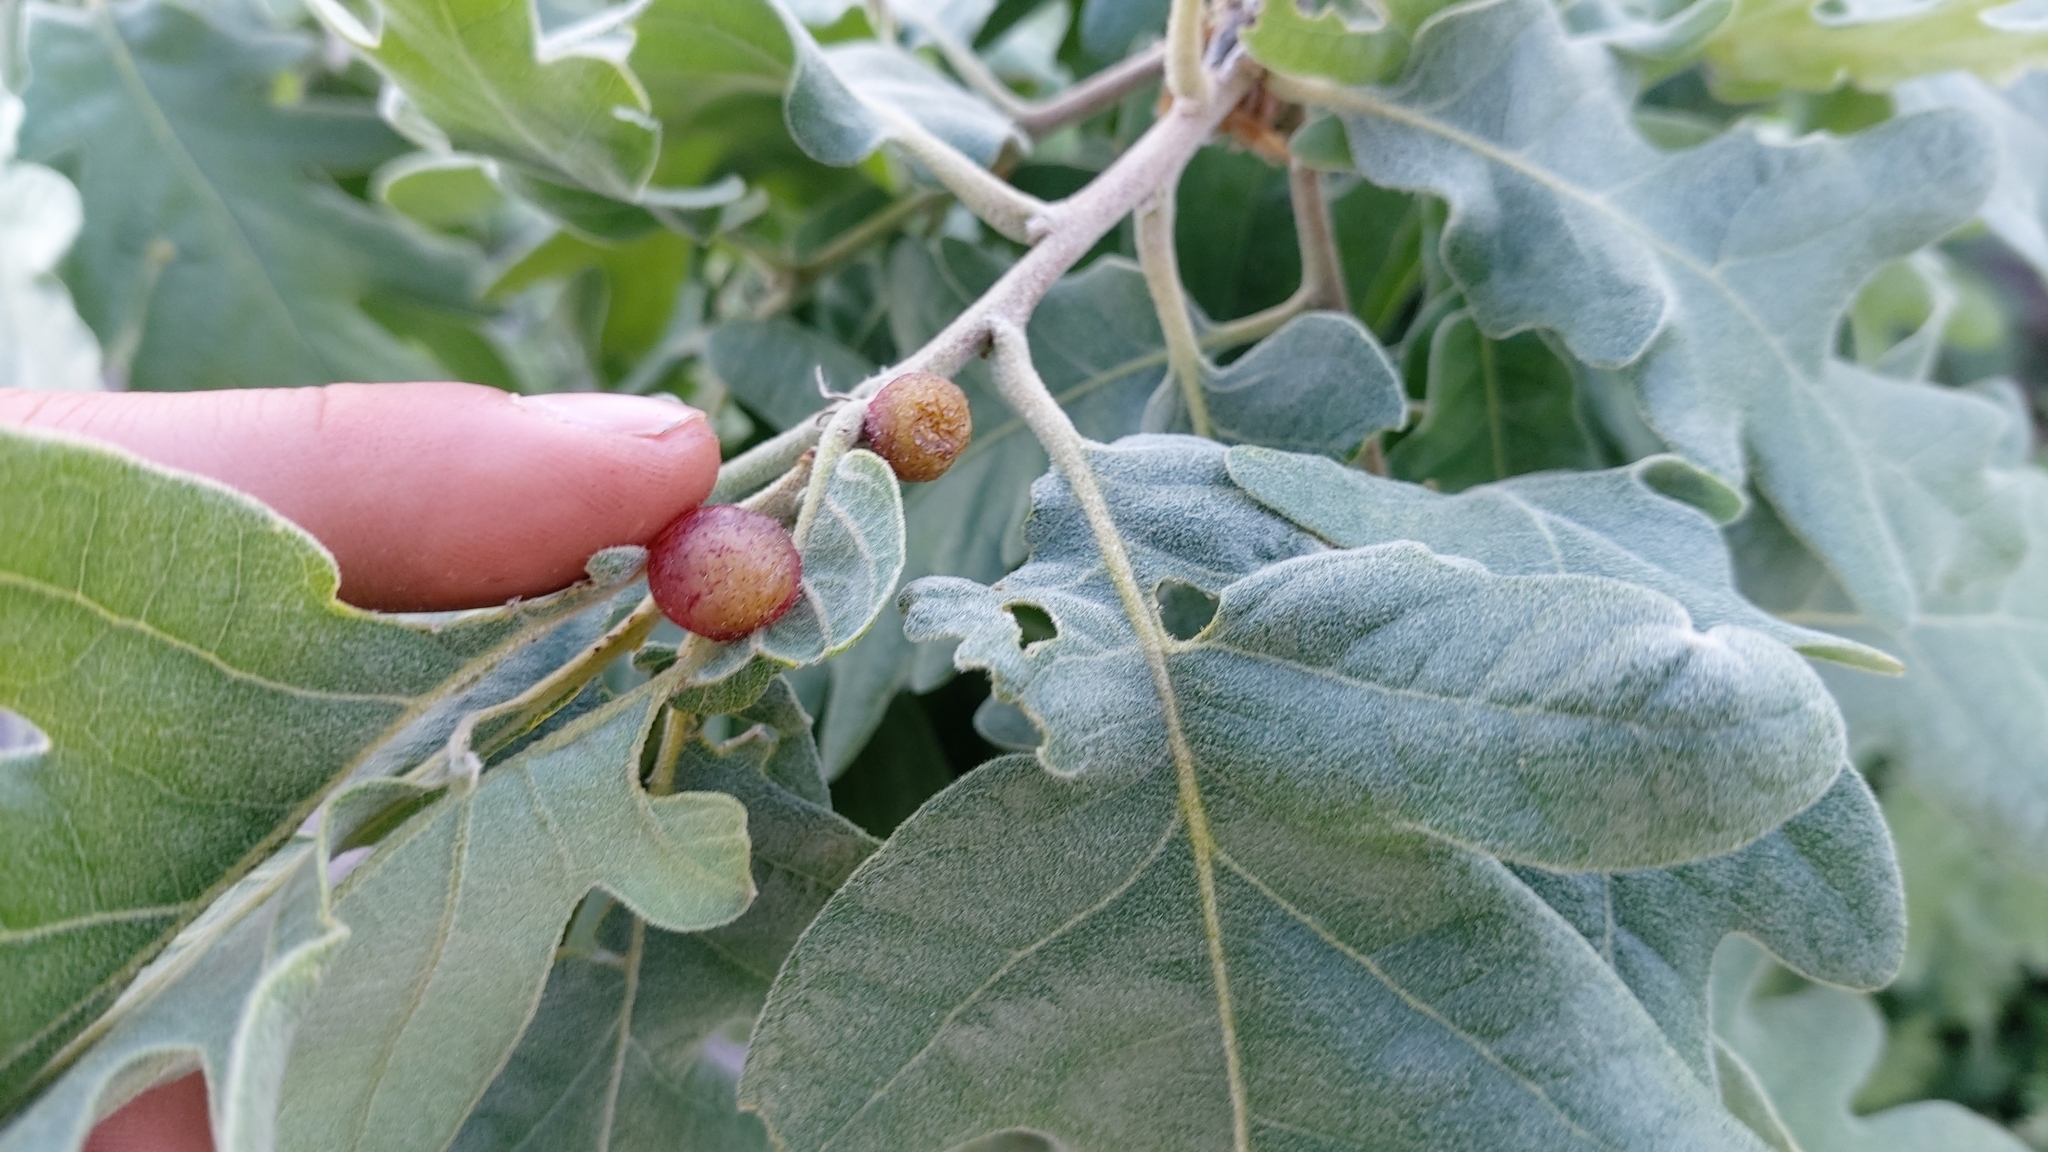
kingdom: Animalia
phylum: Arthropoda
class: Insecta
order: Hymenoptera
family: Cynipidae
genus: Neuroterus
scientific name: Neuroterus quercusbaccarum
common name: Common spangle gall
